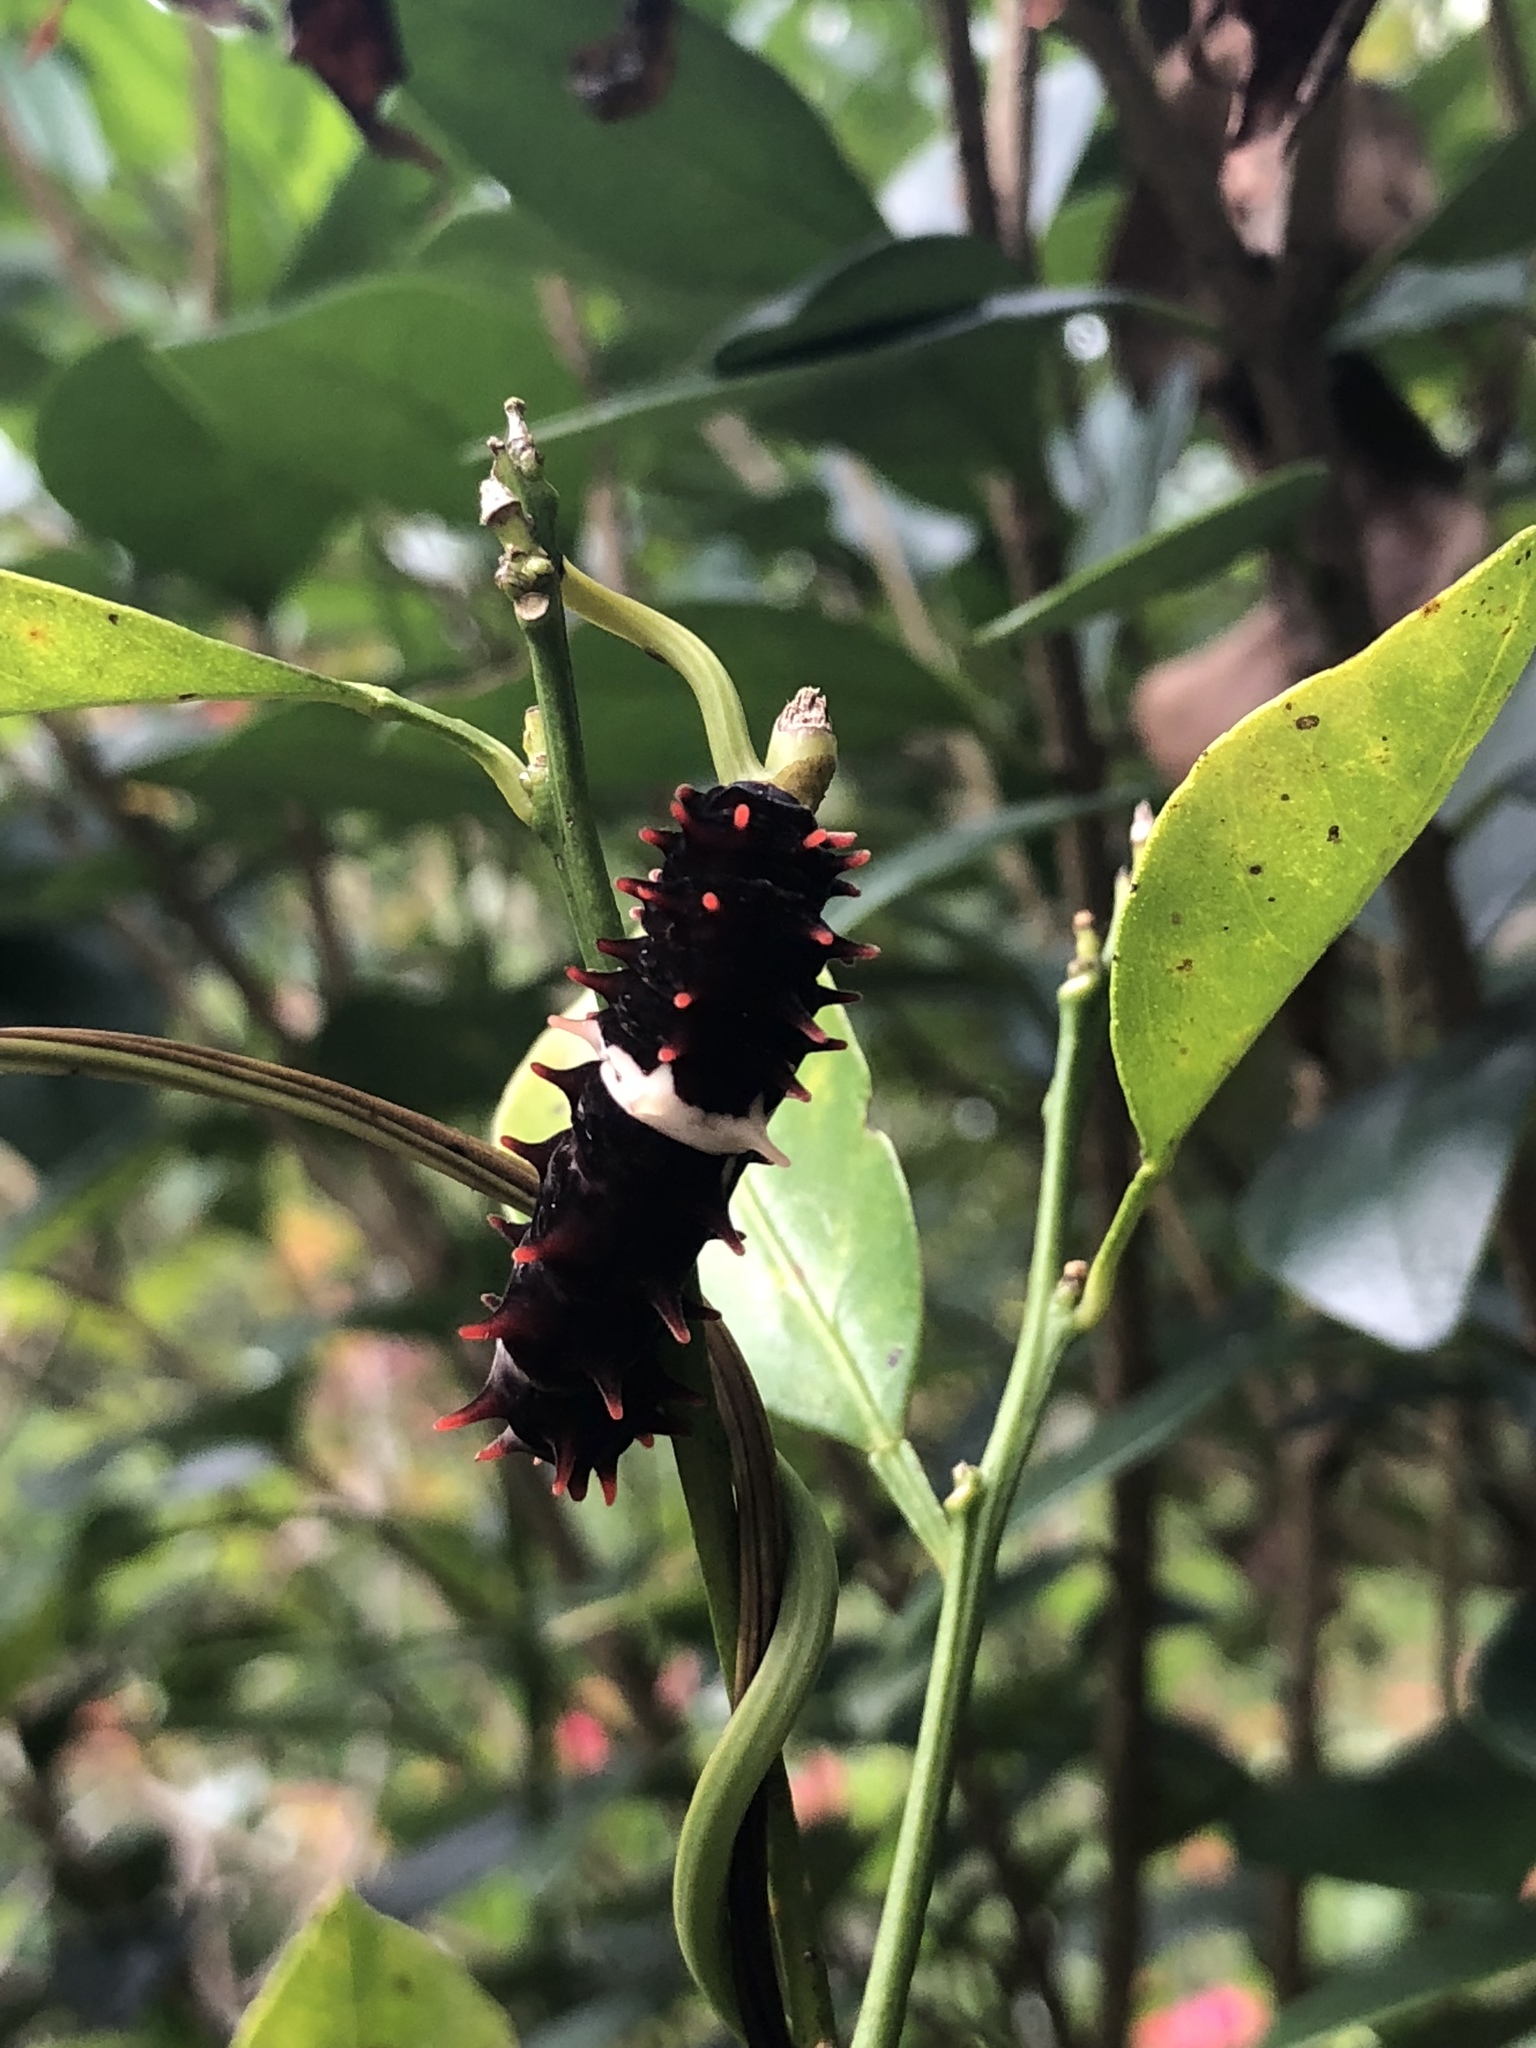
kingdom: Animalia
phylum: Arthropoda
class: Insecta
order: Lepidoptera
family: Papilionidae
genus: Pachliopta
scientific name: Pachliopta aristolochiae
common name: Common rose
